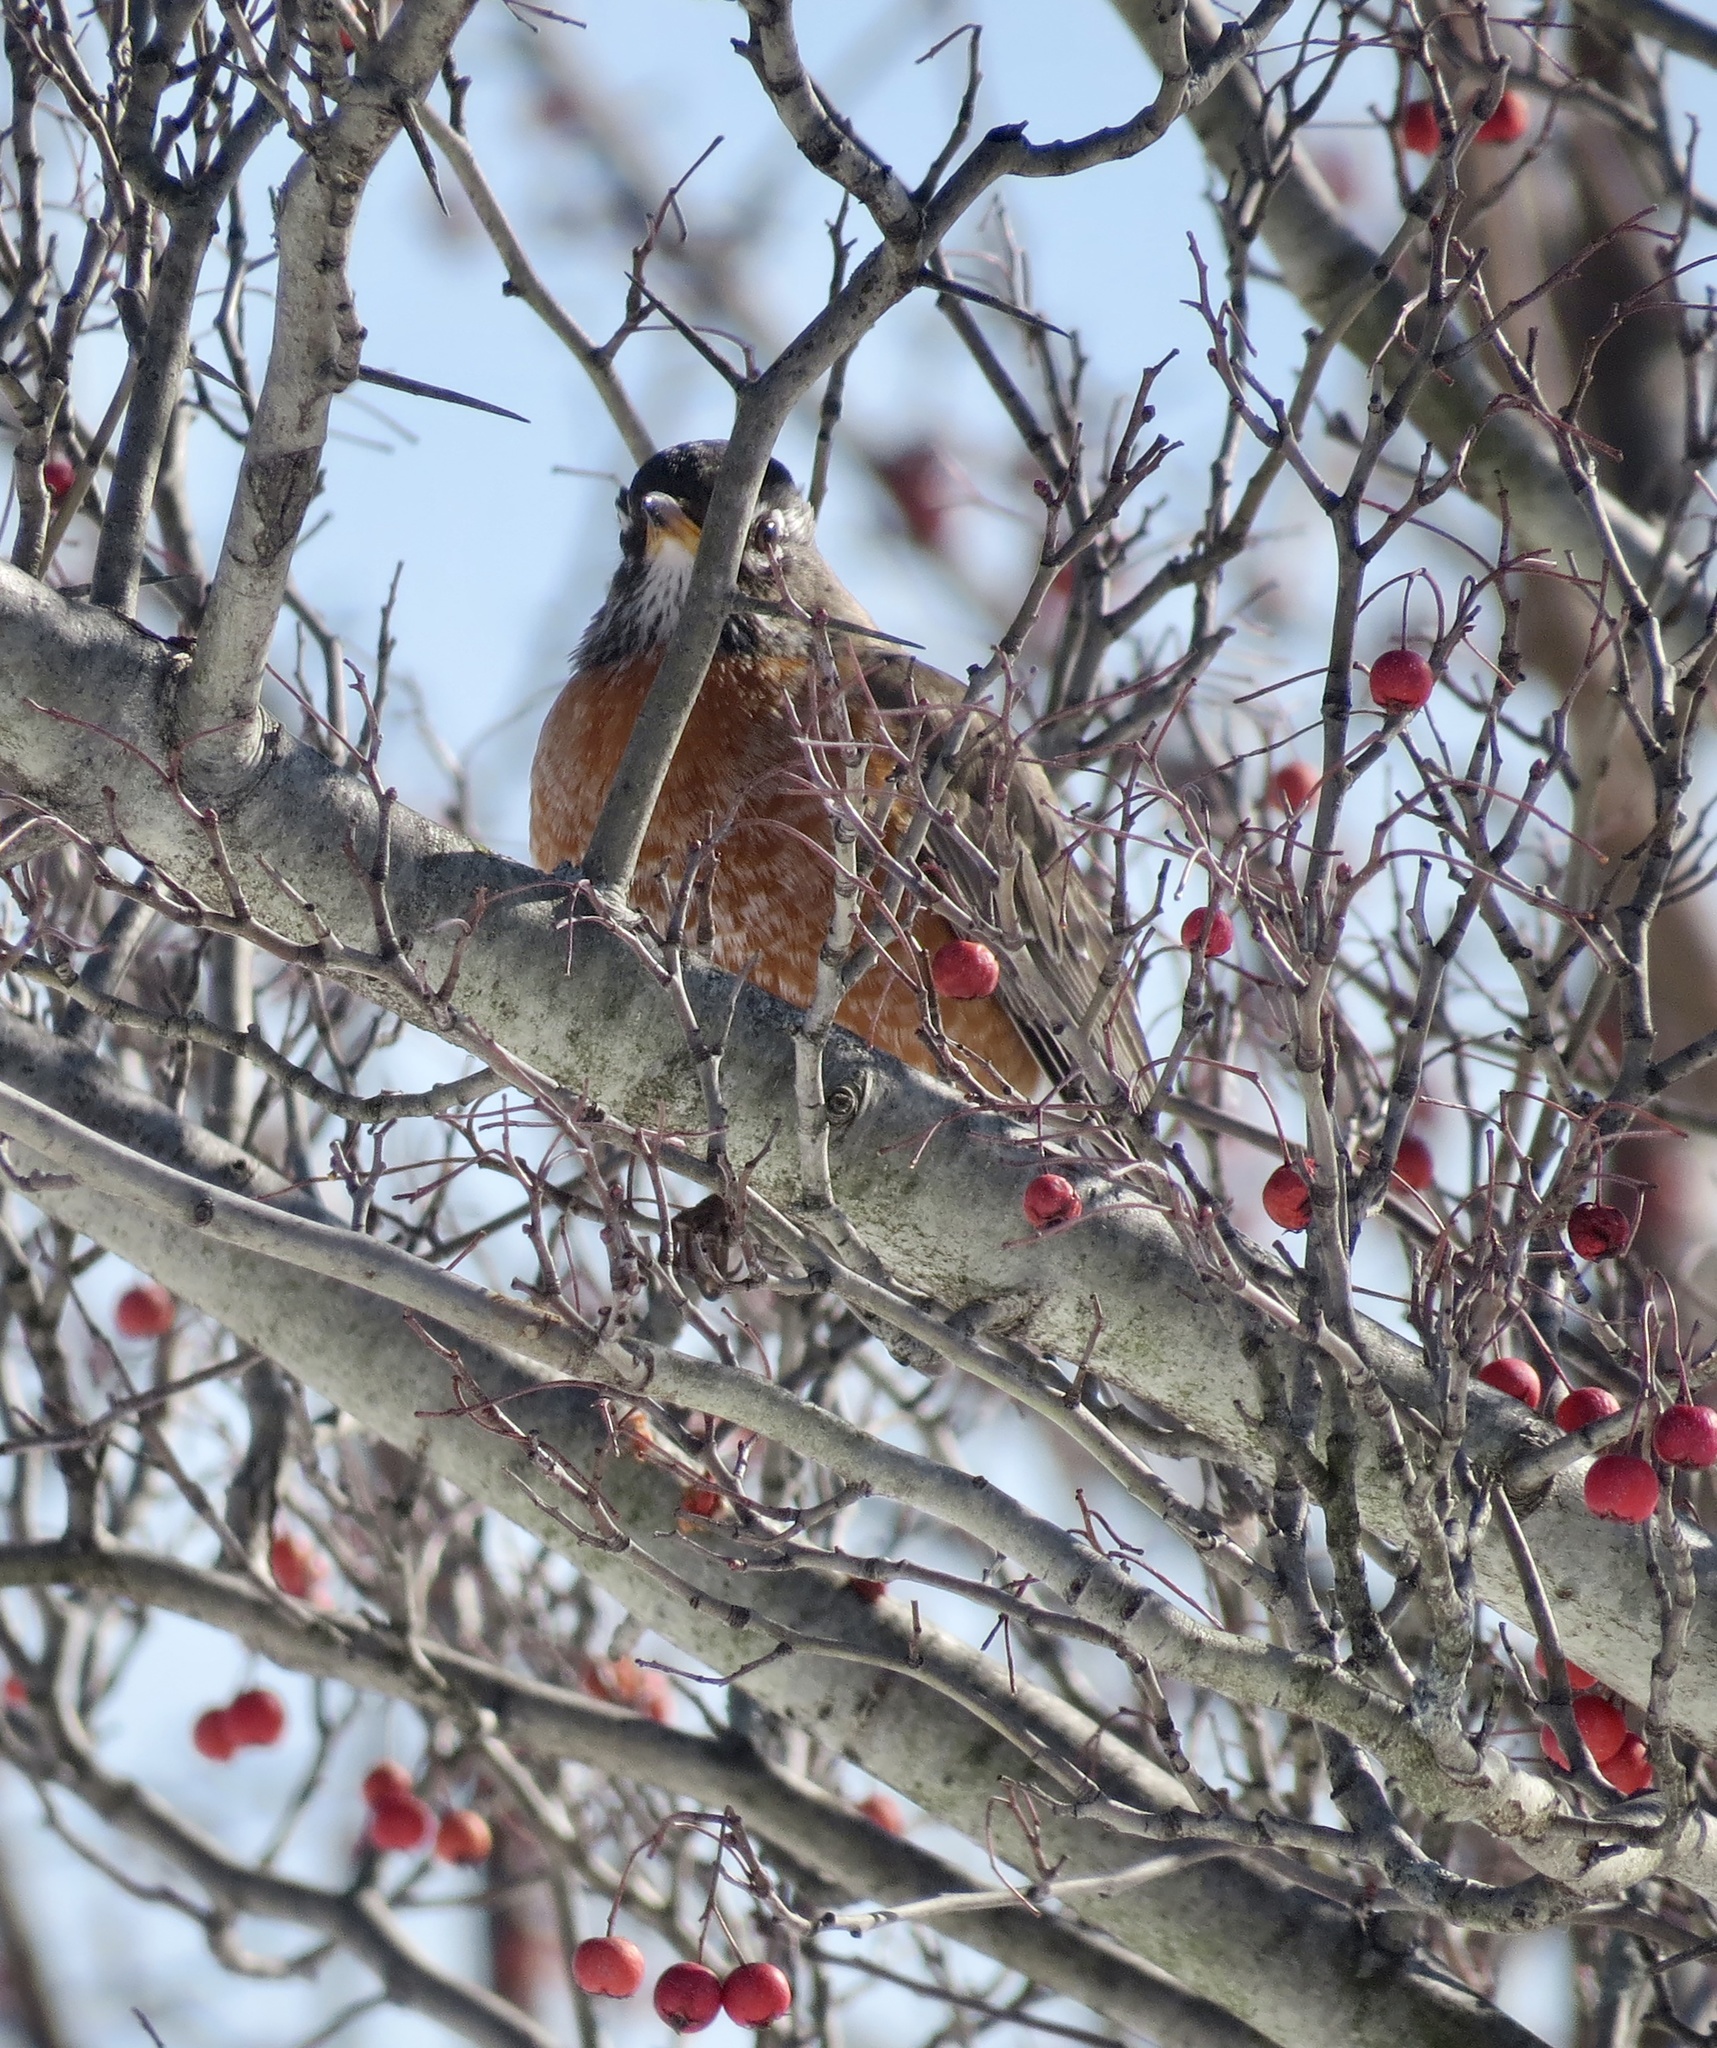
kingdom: Animalia
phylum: Chordata
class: Aves
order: Passeriformes
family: Turdidae
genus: Turdus
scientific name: Turdus migratorius
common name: American robin
